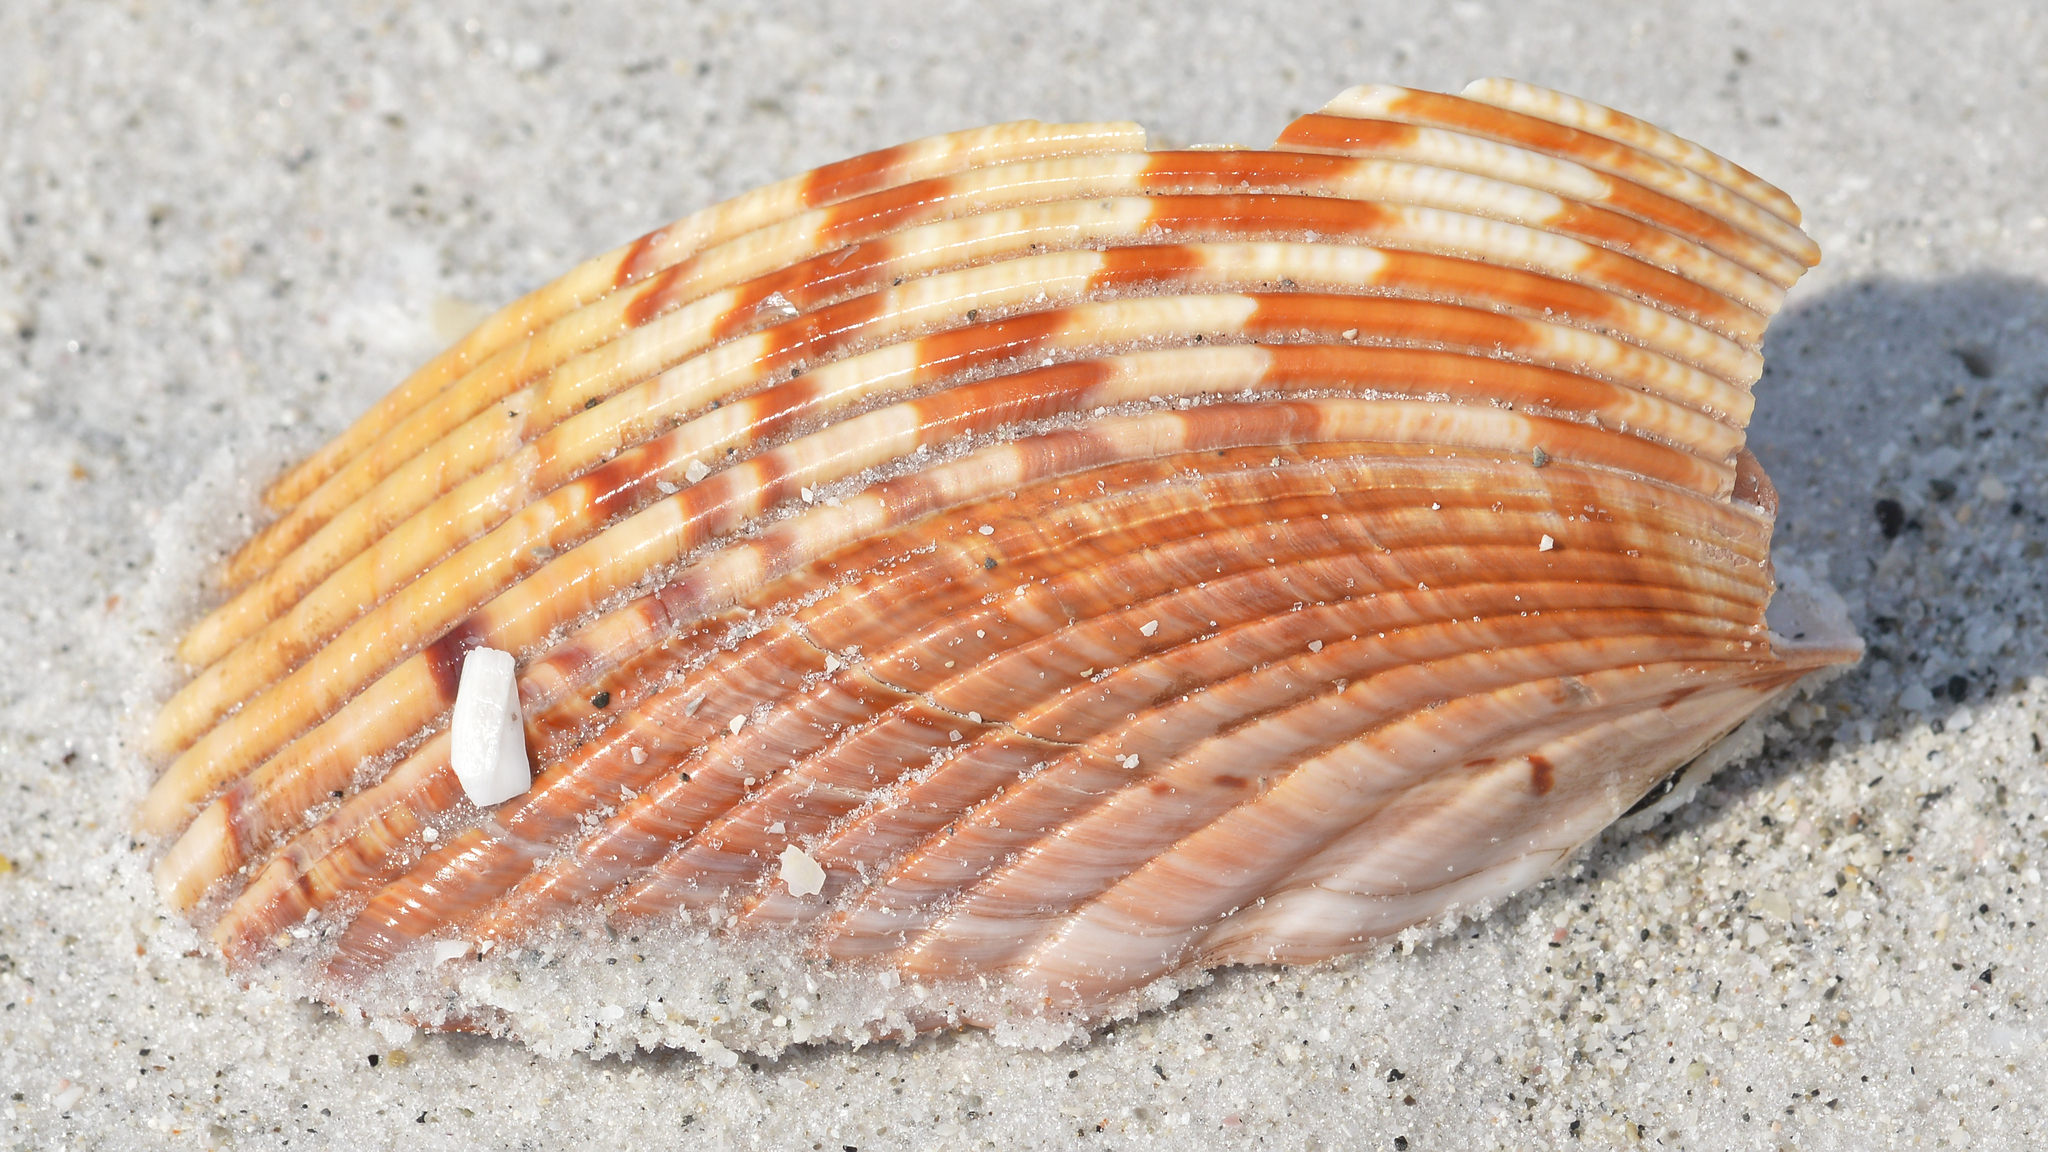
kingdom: Animalia
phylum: Mollusca
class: Bivalvia
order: Cardiida
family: Cardiidae
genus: Dinocardium
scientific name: Dinocardium robustum
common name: Atlantic giant cockle
